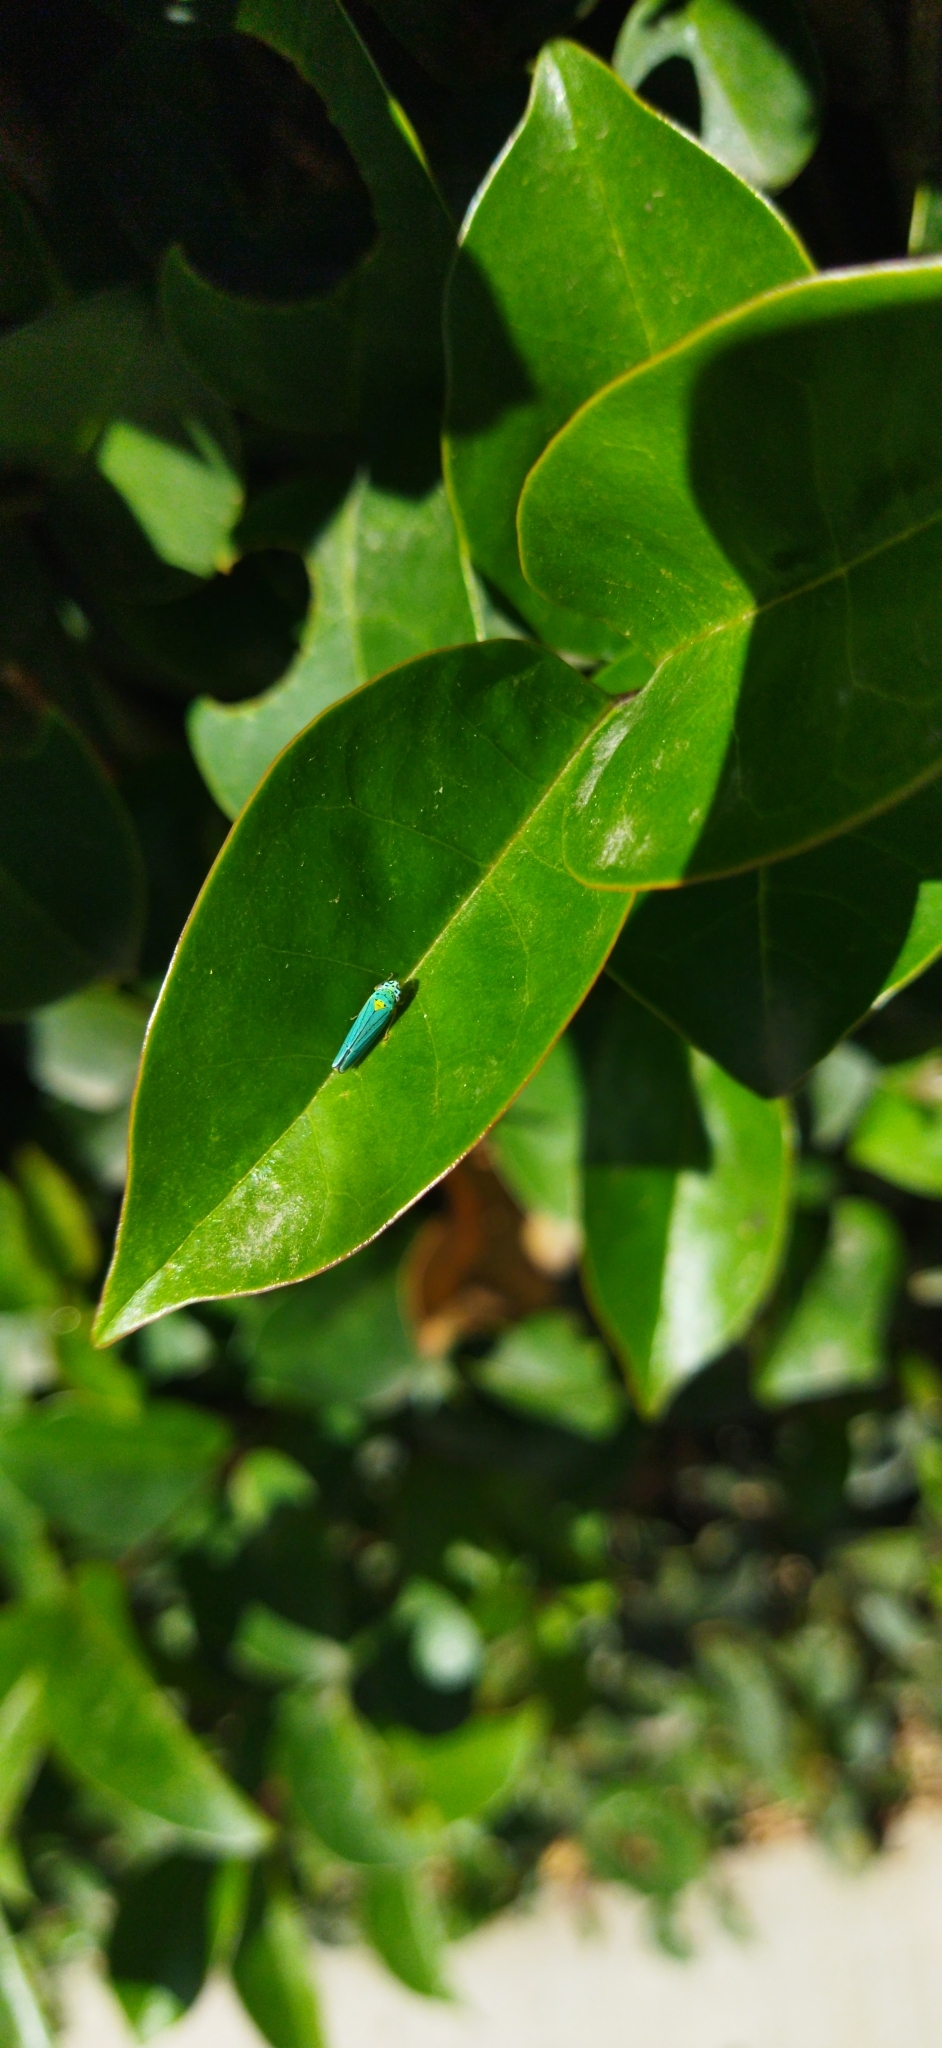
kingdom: Animalia
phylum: Arthropoda
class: Insecta
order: Hemiptera
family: Cicadellidae
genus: Graphocephala
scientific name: Graphocephala atropunctata
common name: Blue-green sharpshooter
